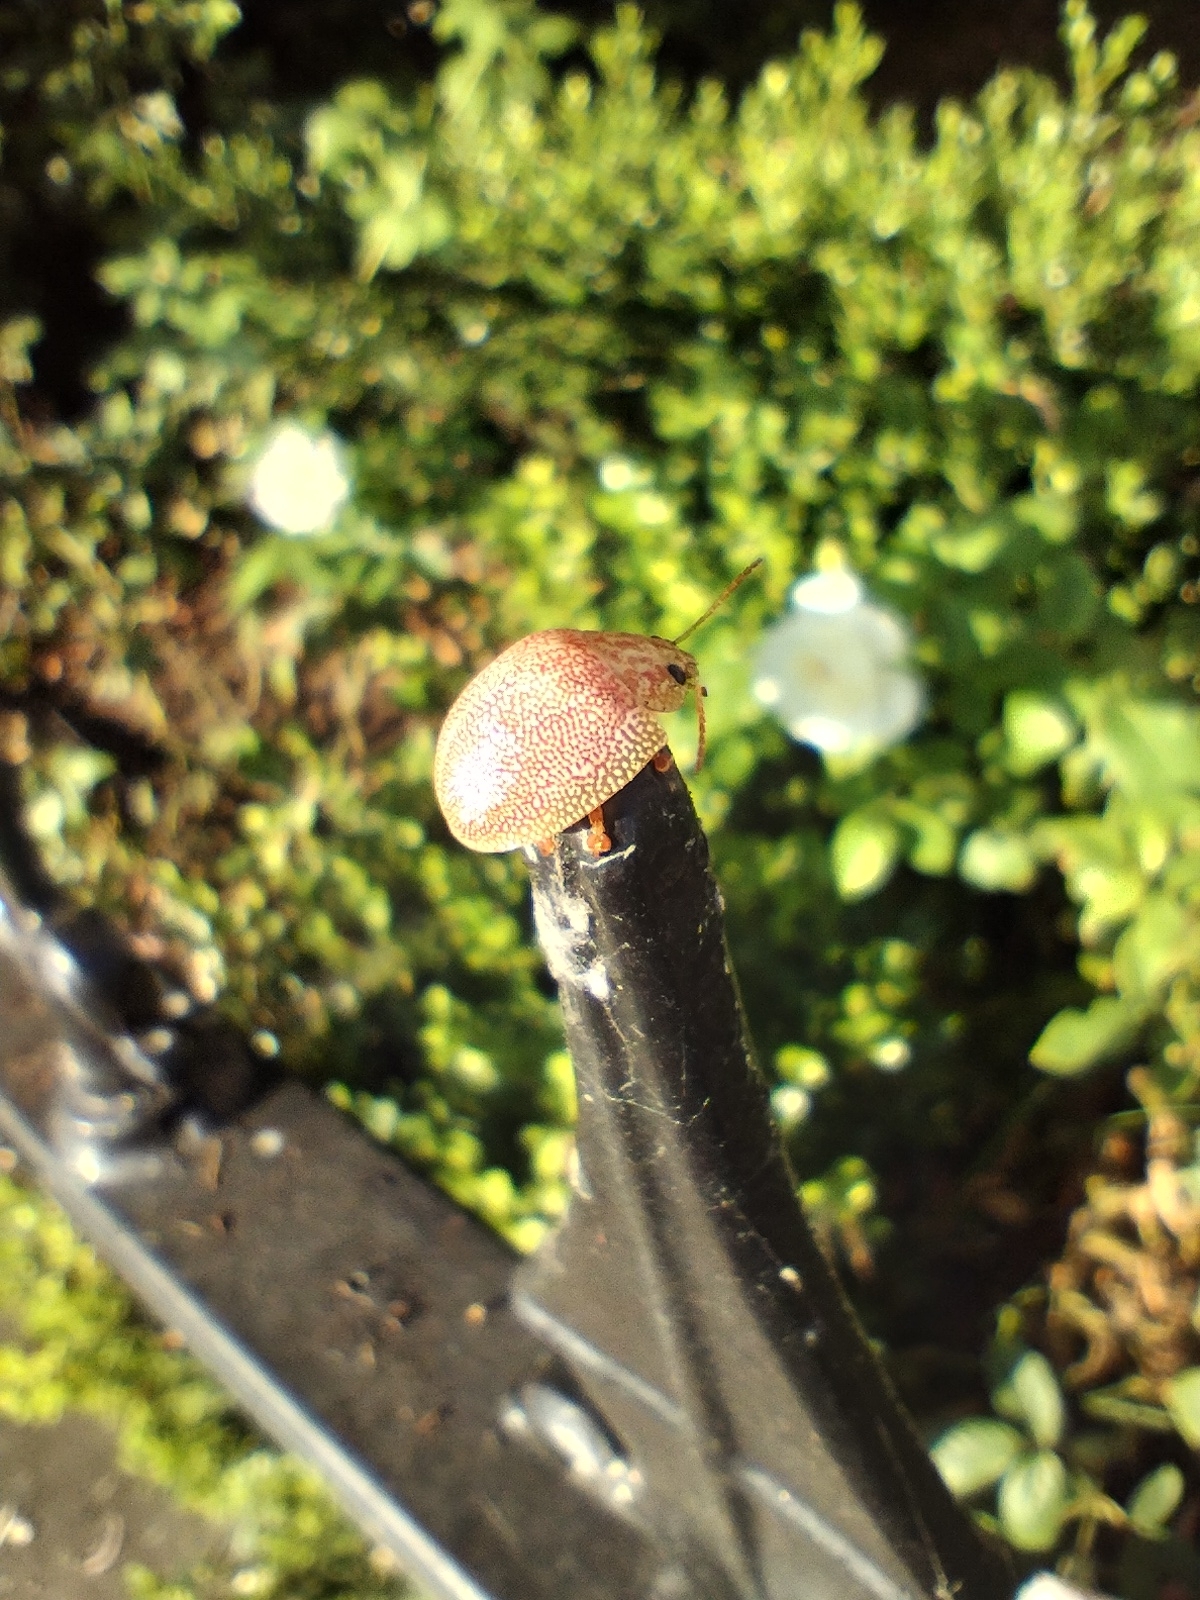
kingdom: Animalia
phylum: Arthropoda
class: Insecta
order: Coleoptera
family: Chrysomelidae
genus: Paropsis
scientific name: Paropsis
